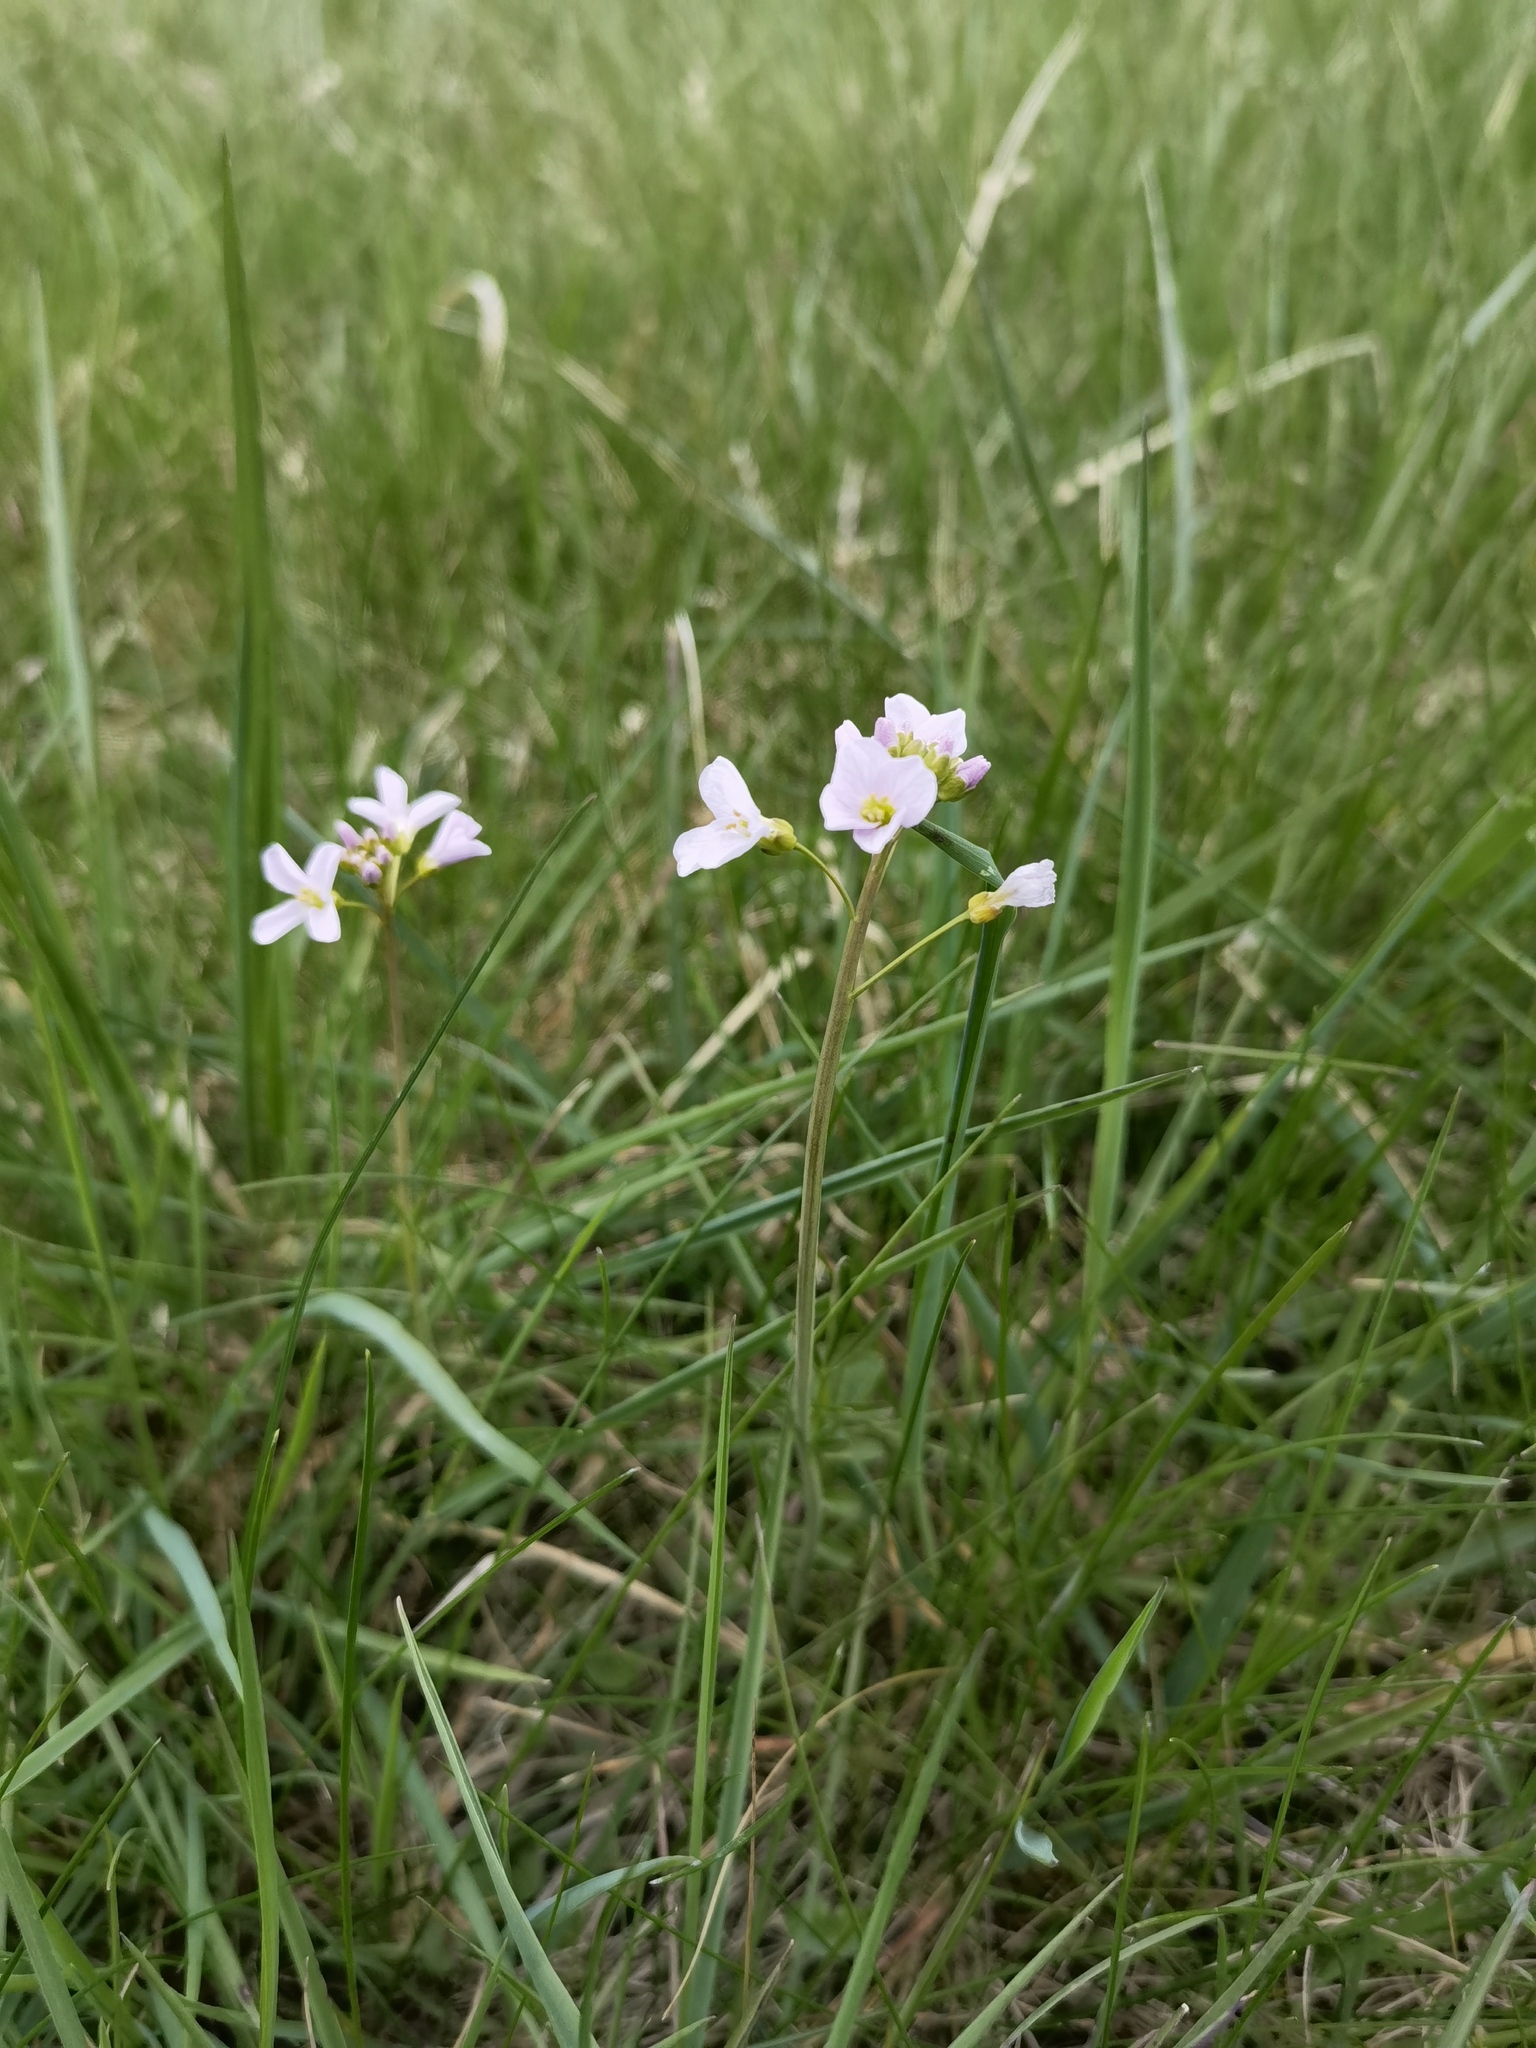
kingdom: Plantae
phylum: Tracheophyta
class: Magnoliopsida
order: Brassicales
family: Brassicaceae
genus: Cardamine
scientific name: Cardamine pratensis
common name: Cuckoo flower
